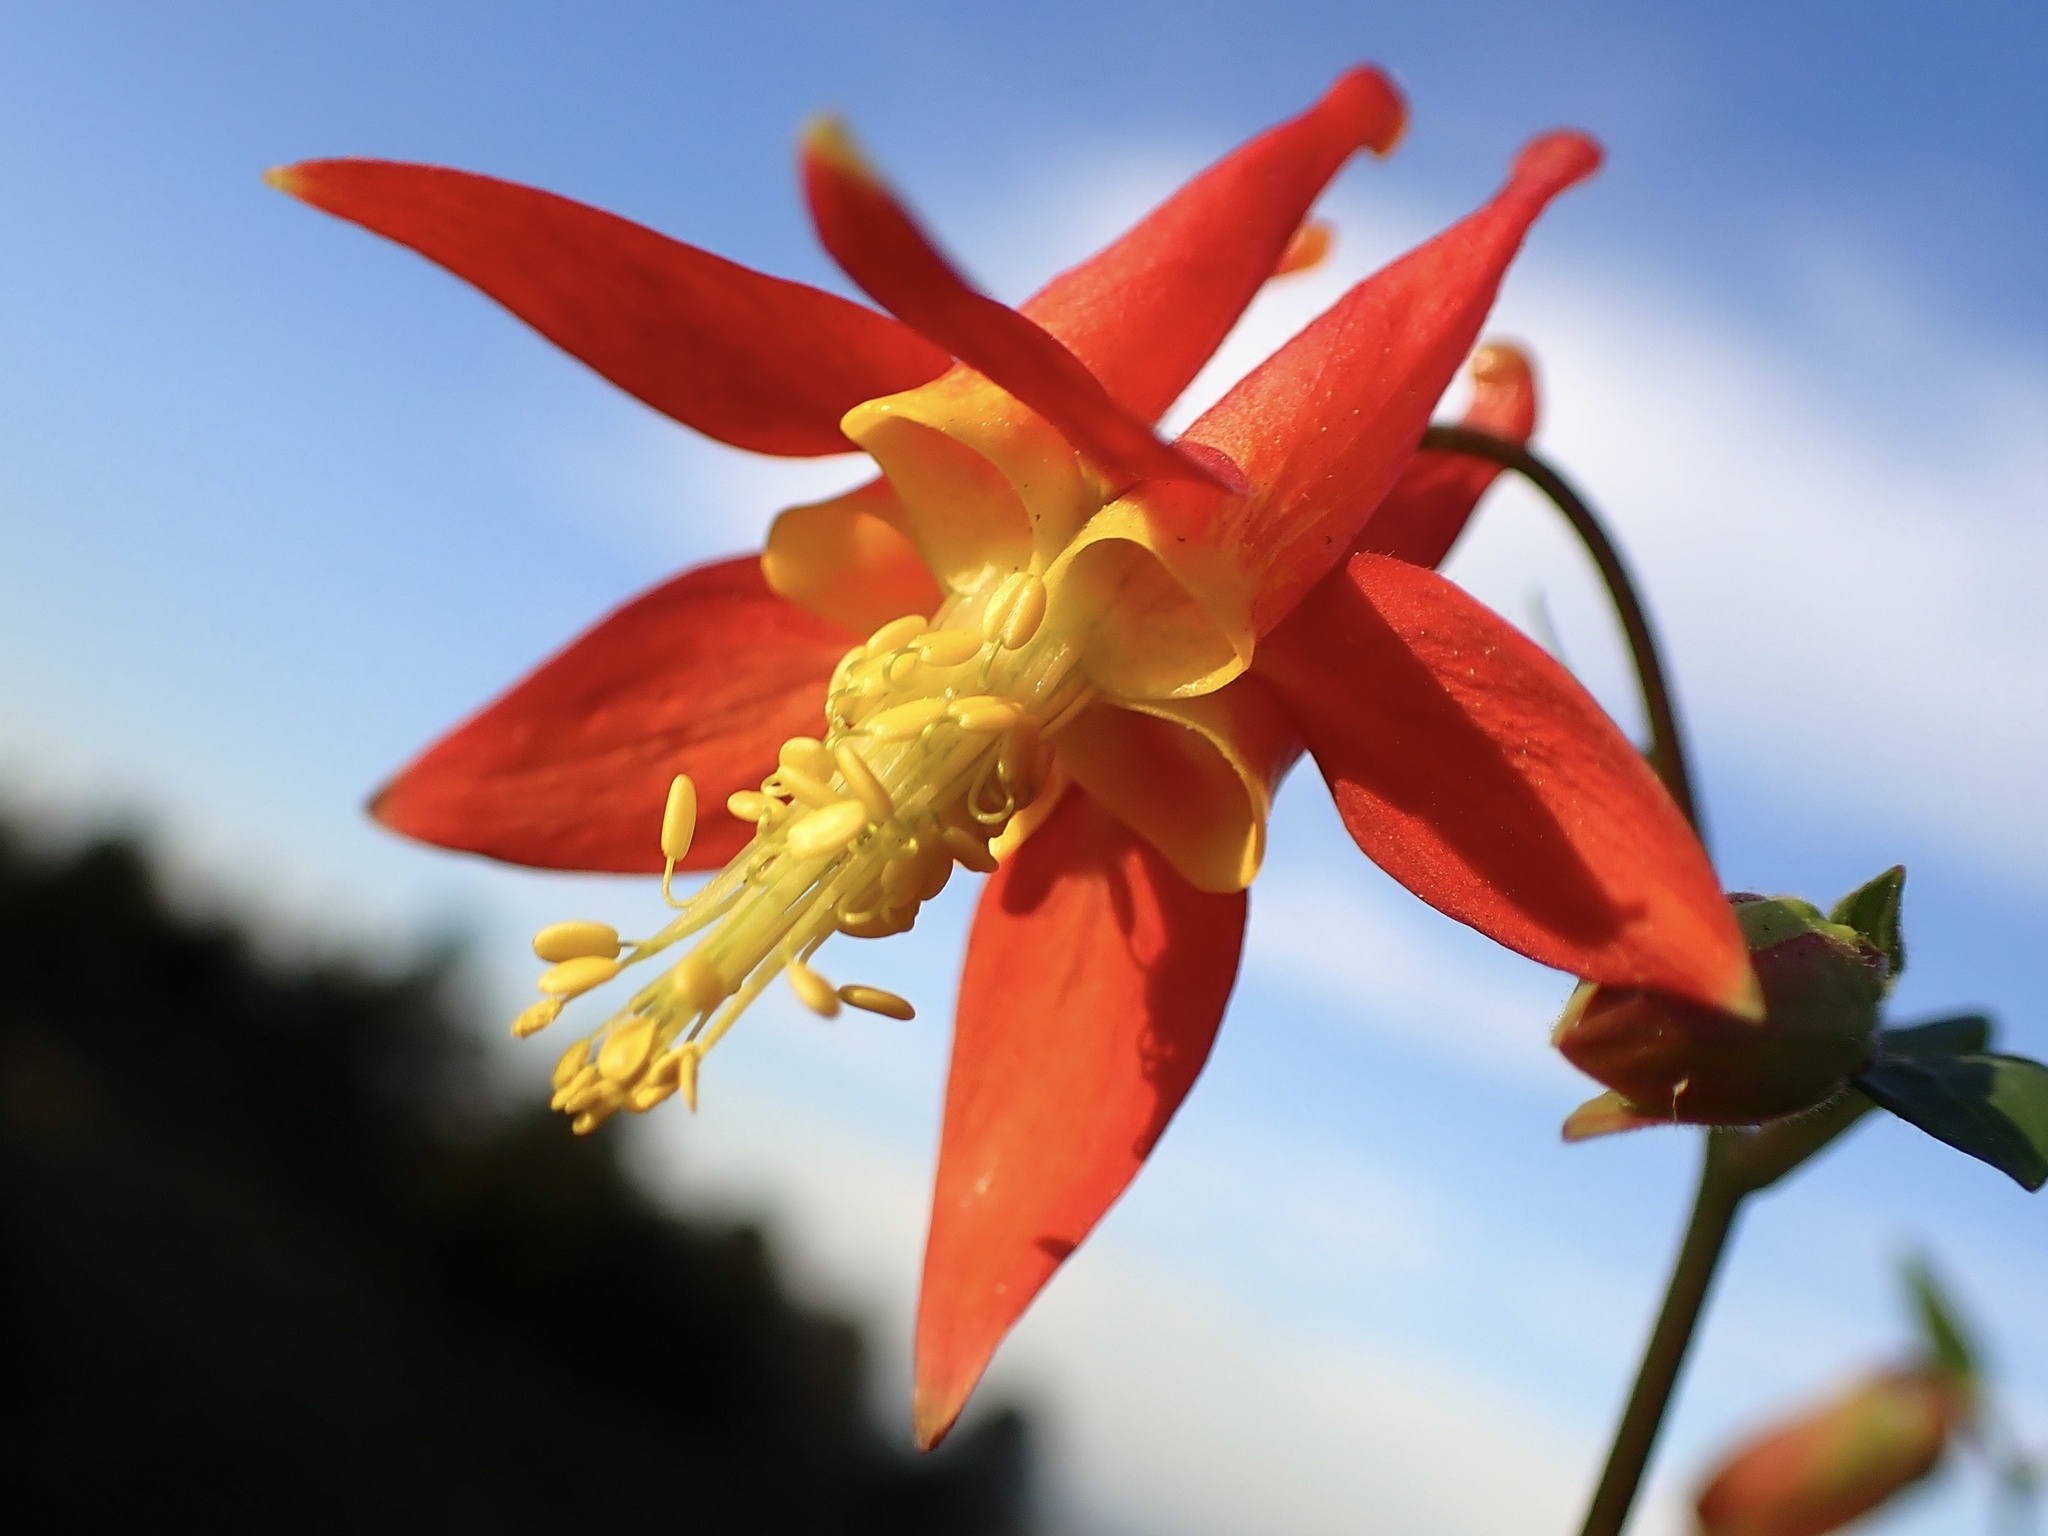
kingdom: Plantae
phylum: Tracheophyta
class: Magnoliopsida
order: Ranunculales
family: Ranunculaceae
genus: Aquilegia
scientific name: Aquilegia formosa
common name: Sitka columbine
